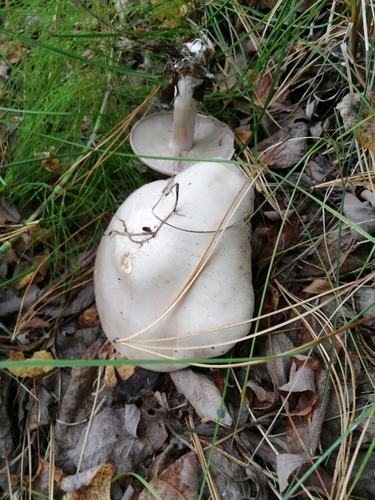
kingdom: Fungi
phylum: Basidiomycota
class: Agaricomycetes
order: Agaricales
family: Tricholomataceae
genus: Clitocybe
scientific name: Clitocybe nebularis
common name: Clouded agaric
